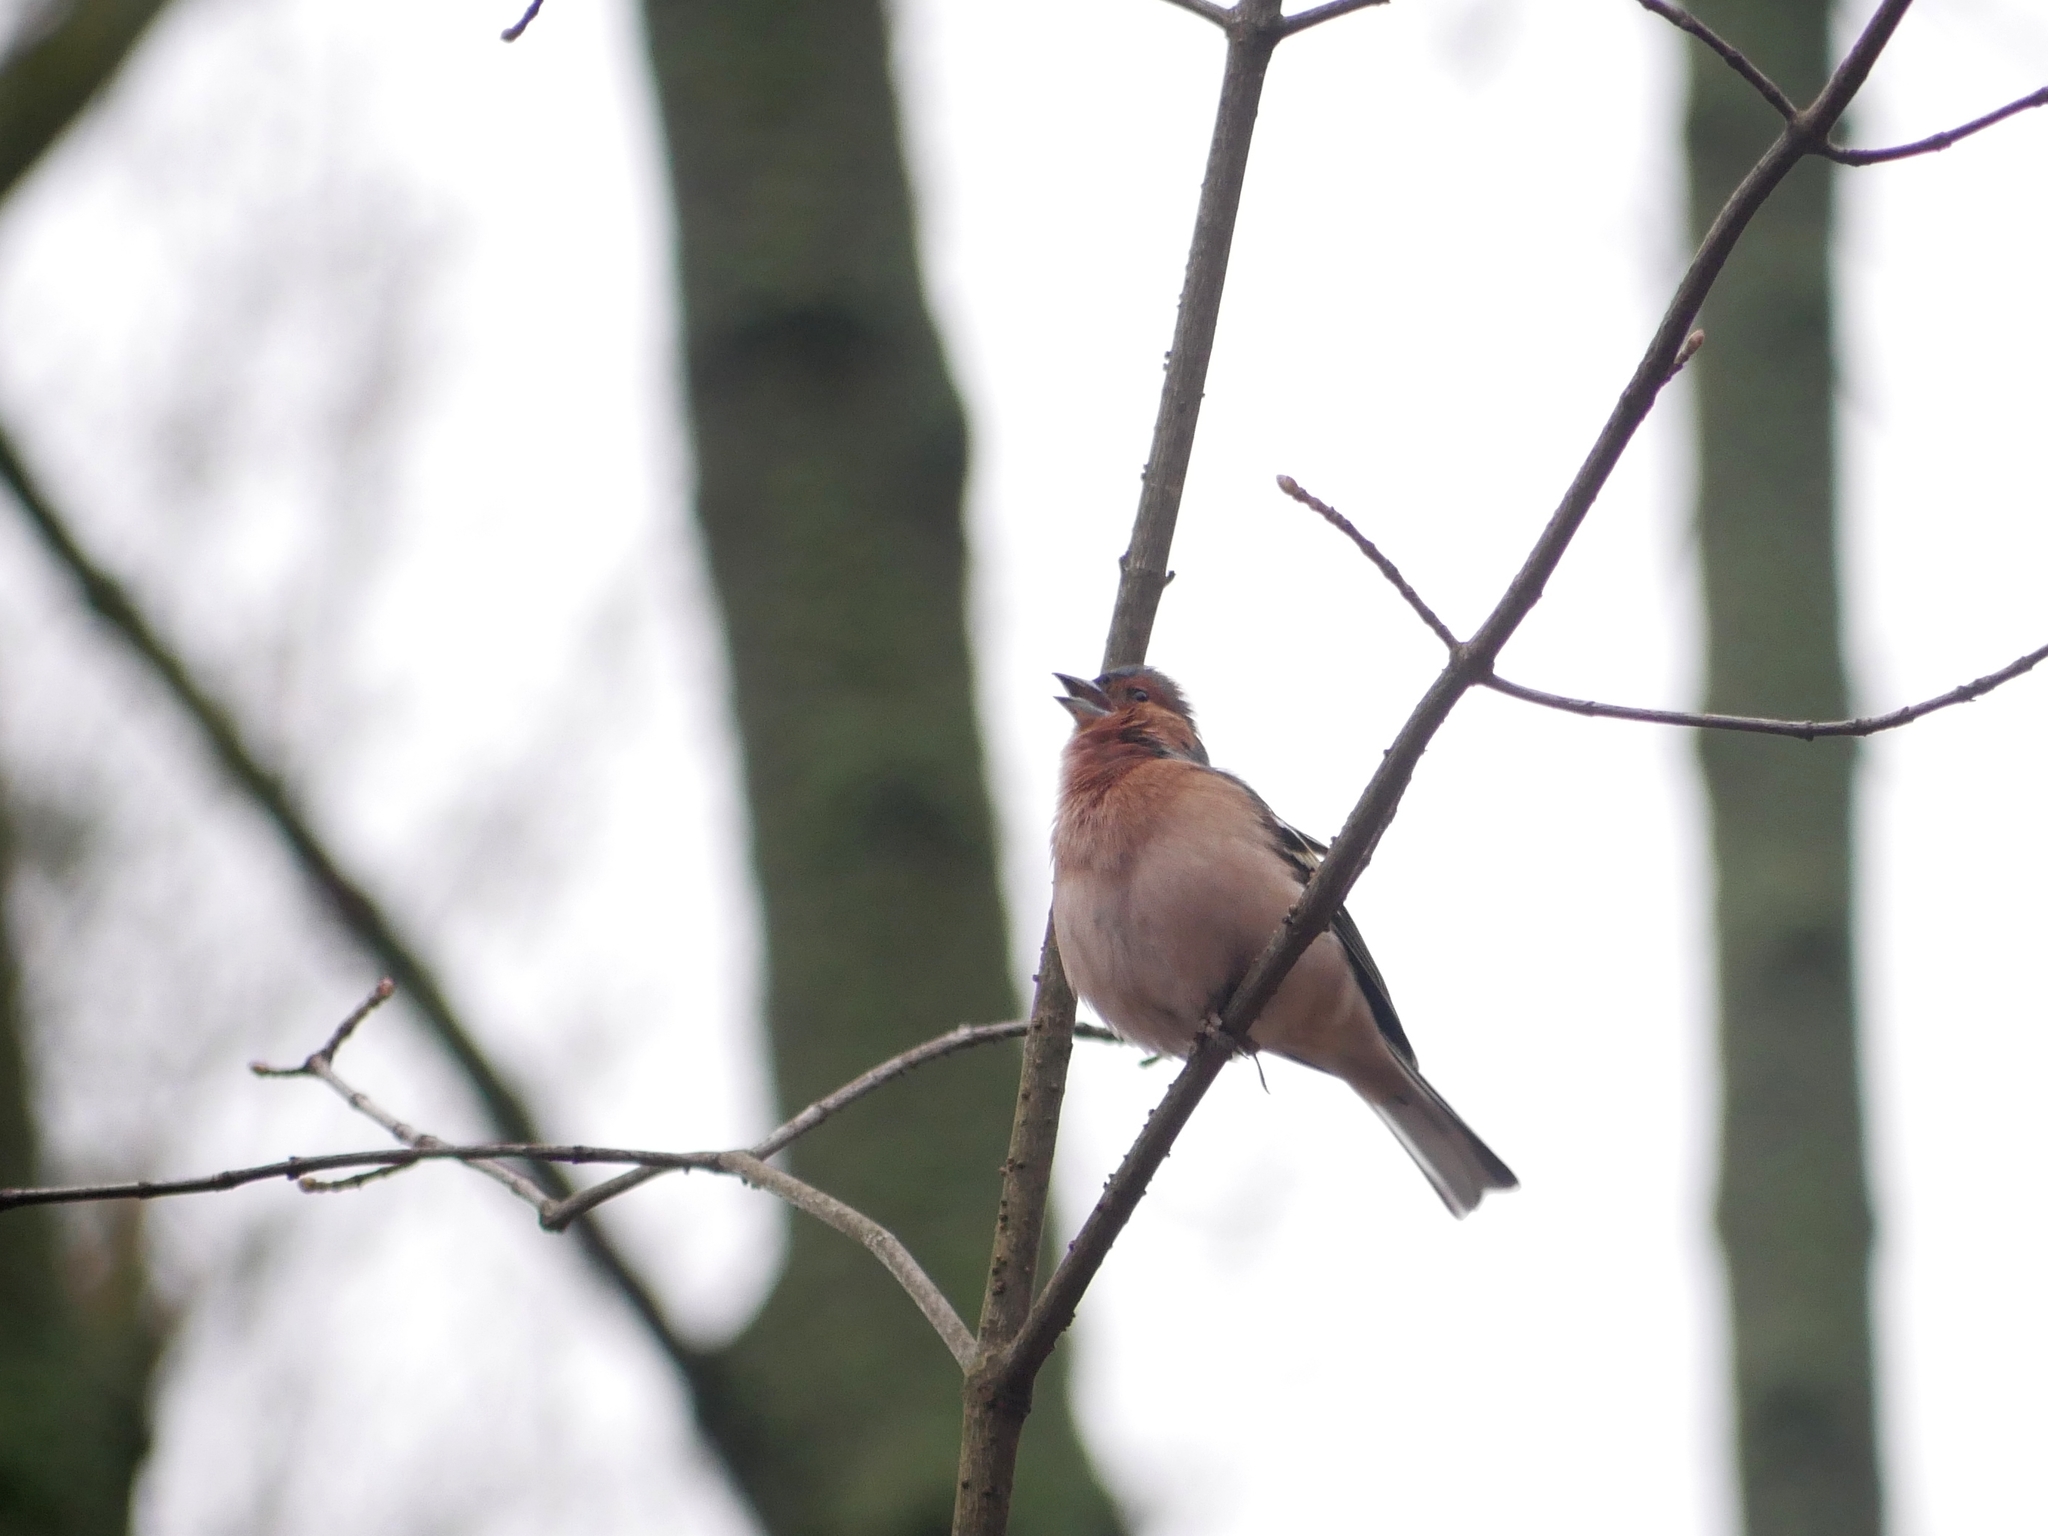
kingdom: Animalia
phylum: Chordata
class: Aves
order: Passeriformes
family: Fringillidae
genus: Fringilla
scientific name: Fringilla coelebs
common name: Common chaffinch
